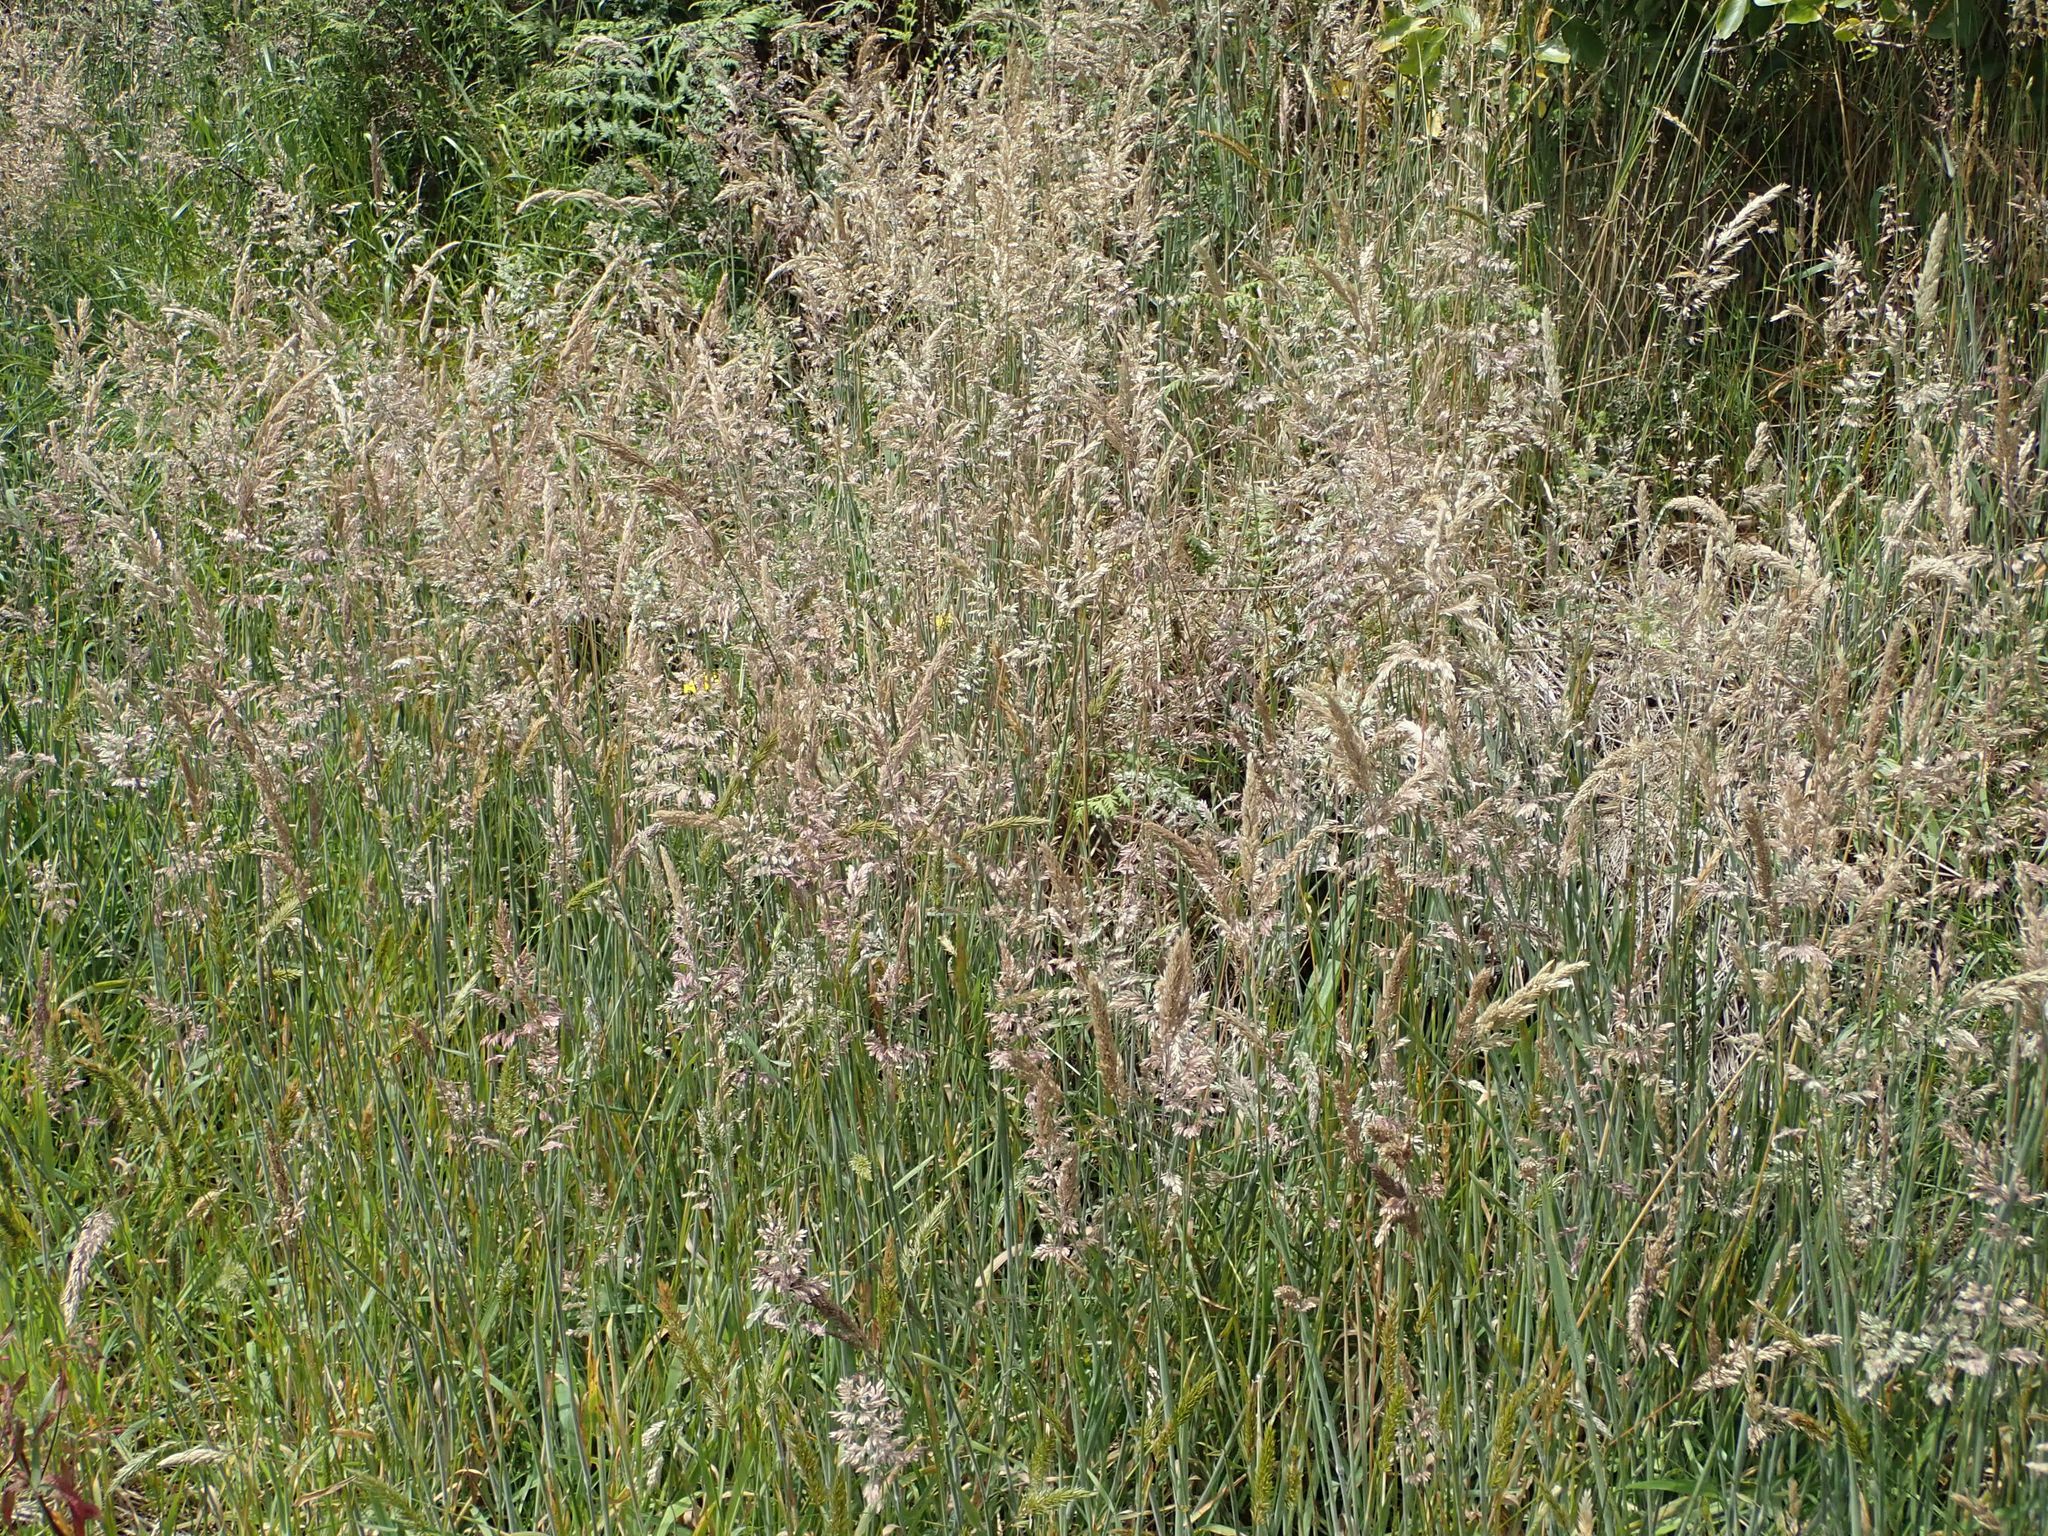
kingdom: Plantae
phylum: Tracheophyta
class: Liliopsida
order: Poales
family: Poaceae
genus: Holcus
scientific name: Holcus lanatus
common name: Yorkshire-fog
